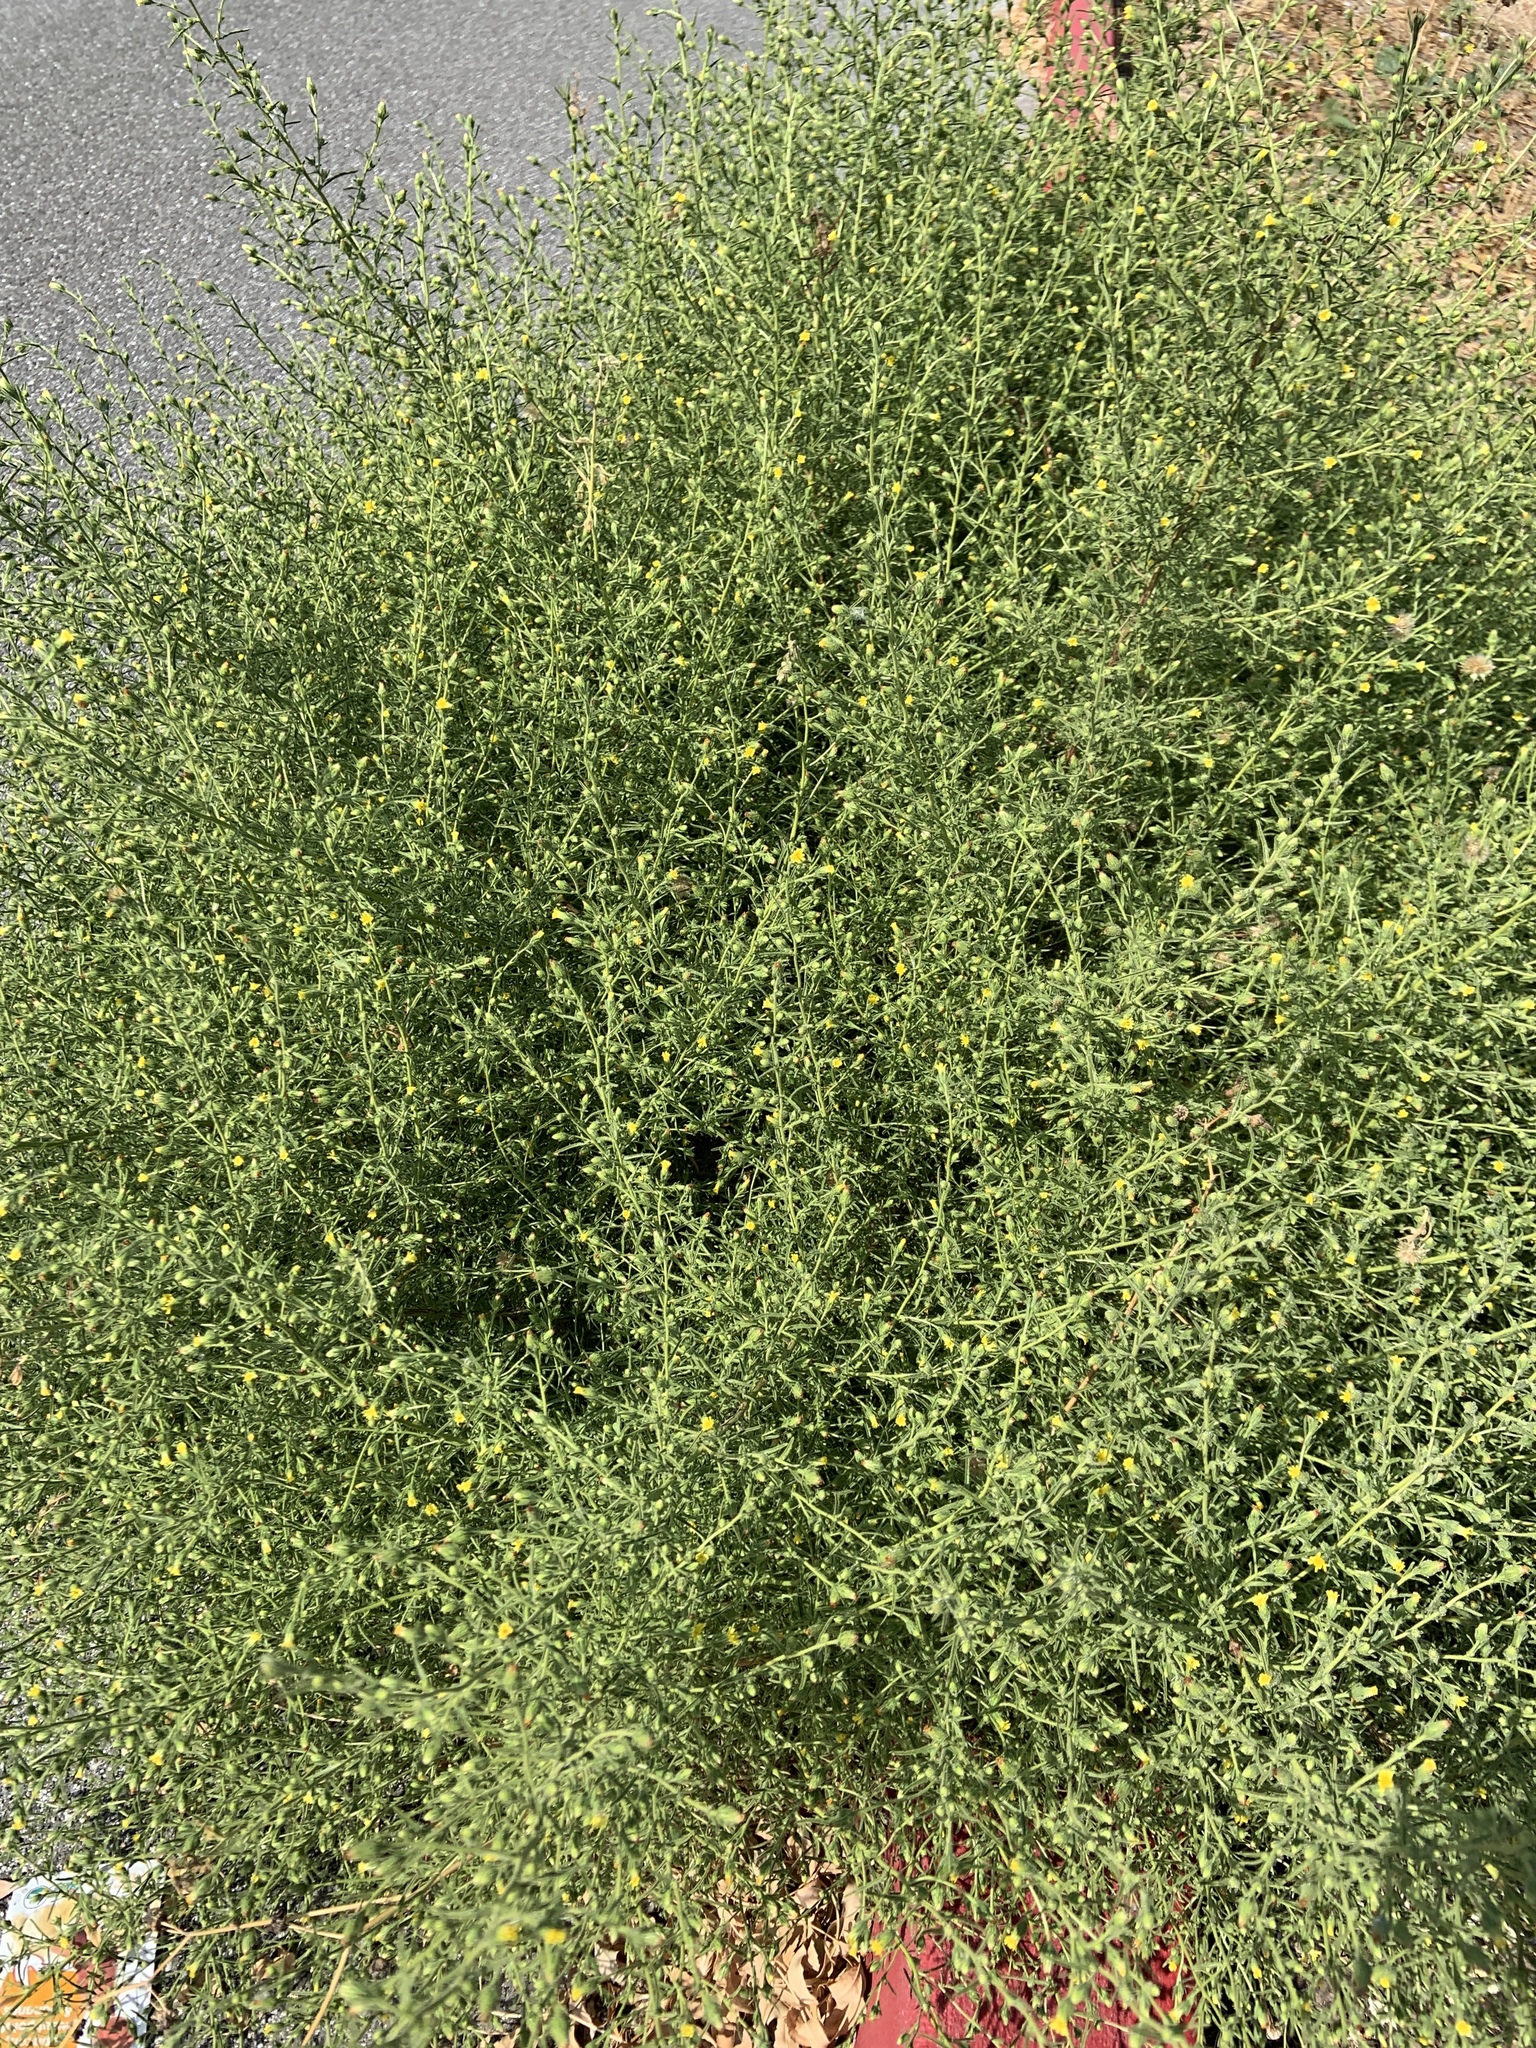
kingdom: Plantae
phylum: Tracheophyta
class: Magnoliopsida
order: Asterales
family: Asteraceae
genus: Dittrichia
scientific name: Dittrichia graveolens
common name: Stinking fleabane
